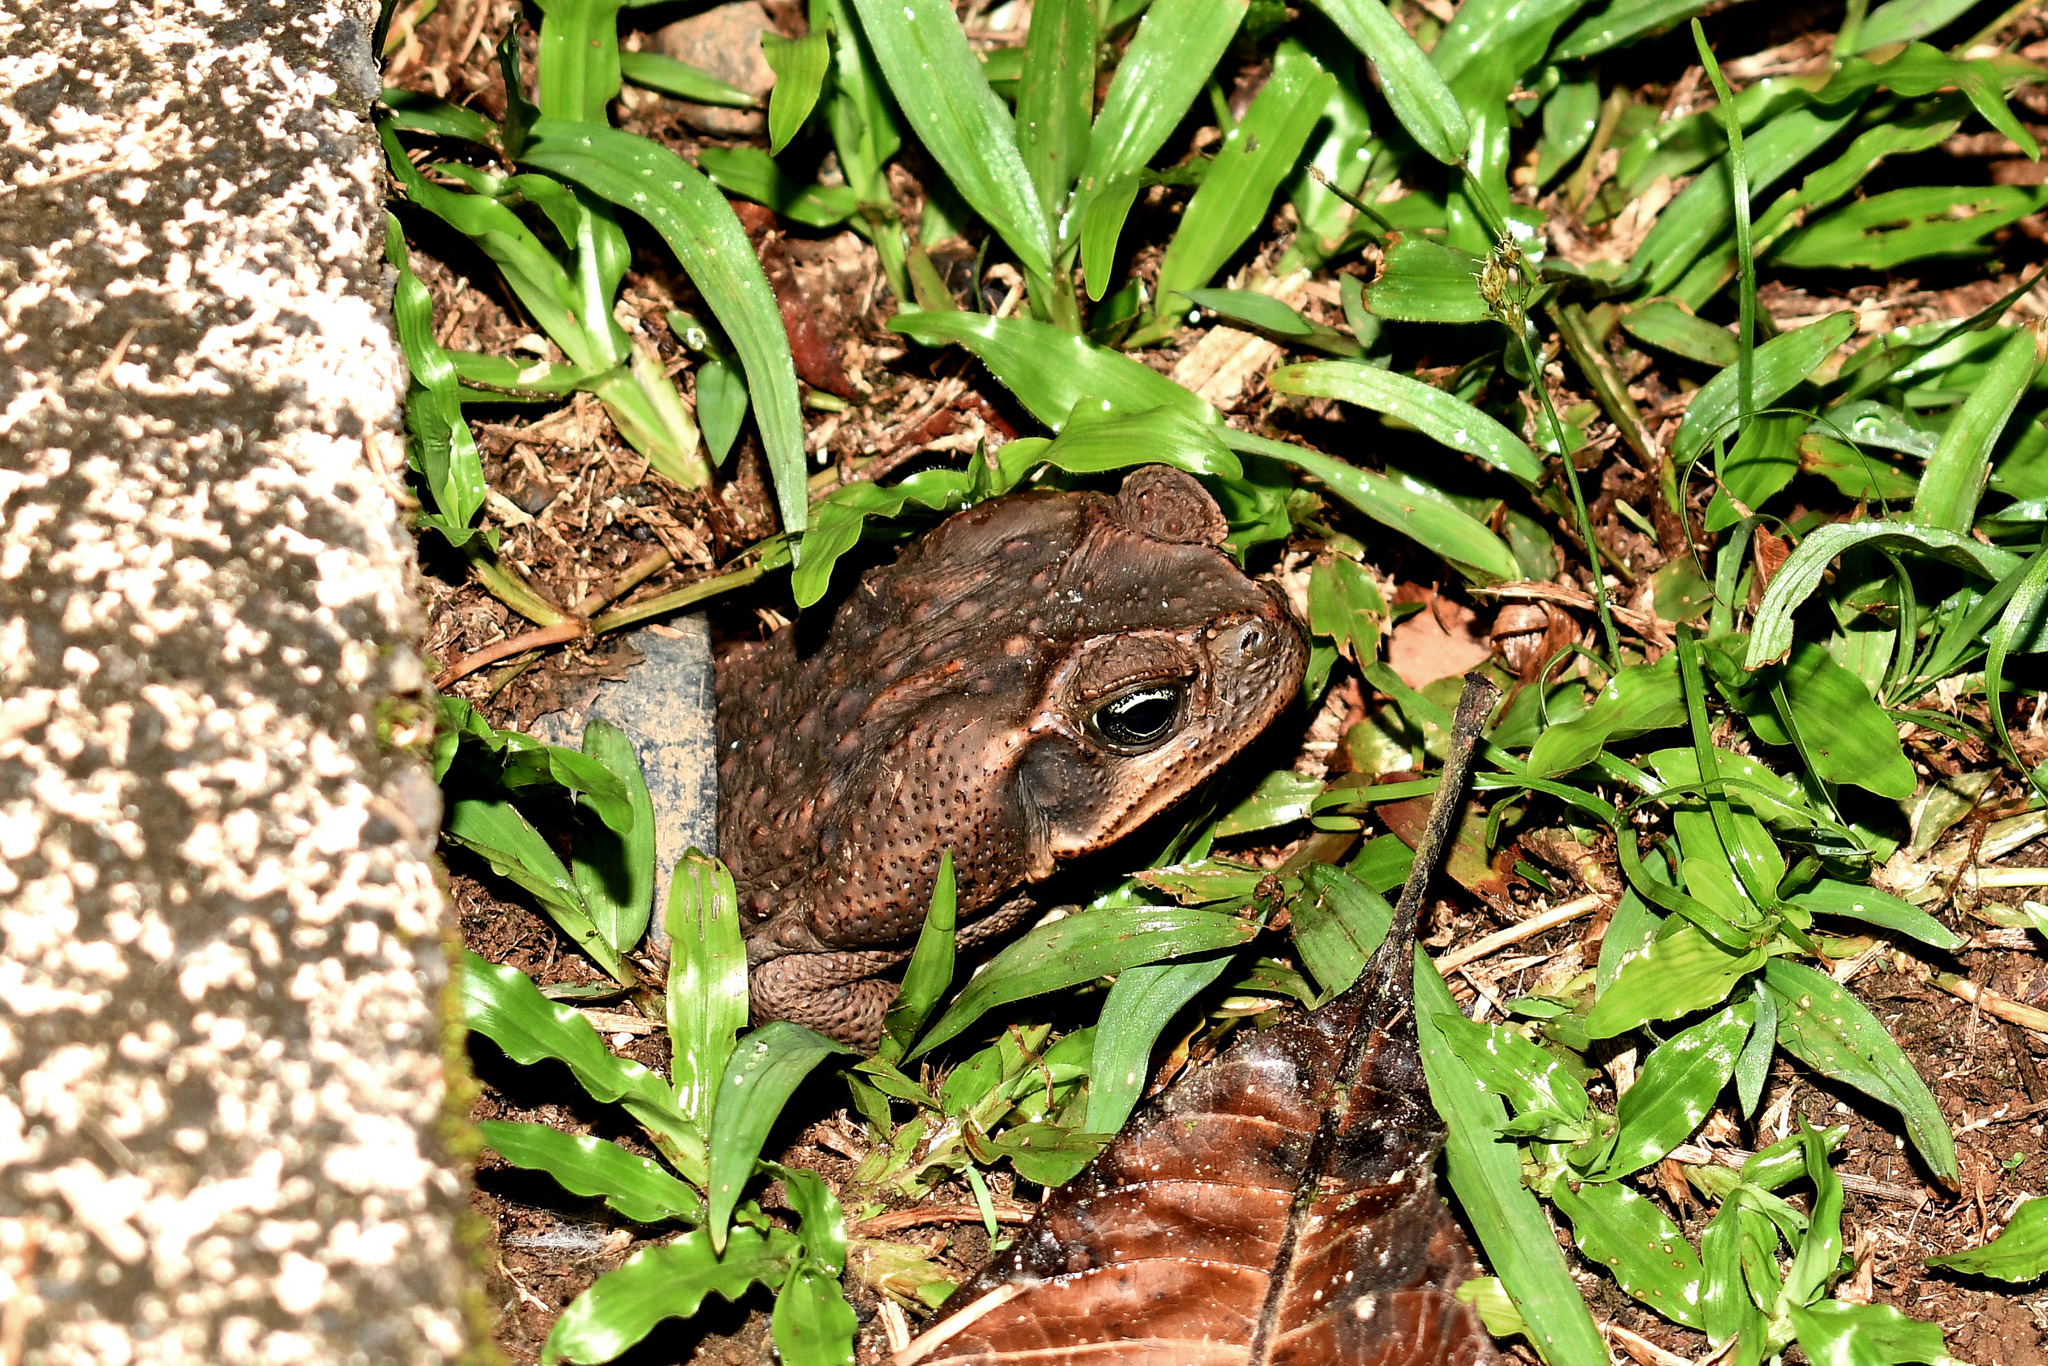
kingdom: Animalia
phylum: Chordata
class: Amphibia
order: Anura
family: Bufonidae
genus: Rhinella
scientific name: Rhinella horribilis
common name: Mesoamerican cane toad
